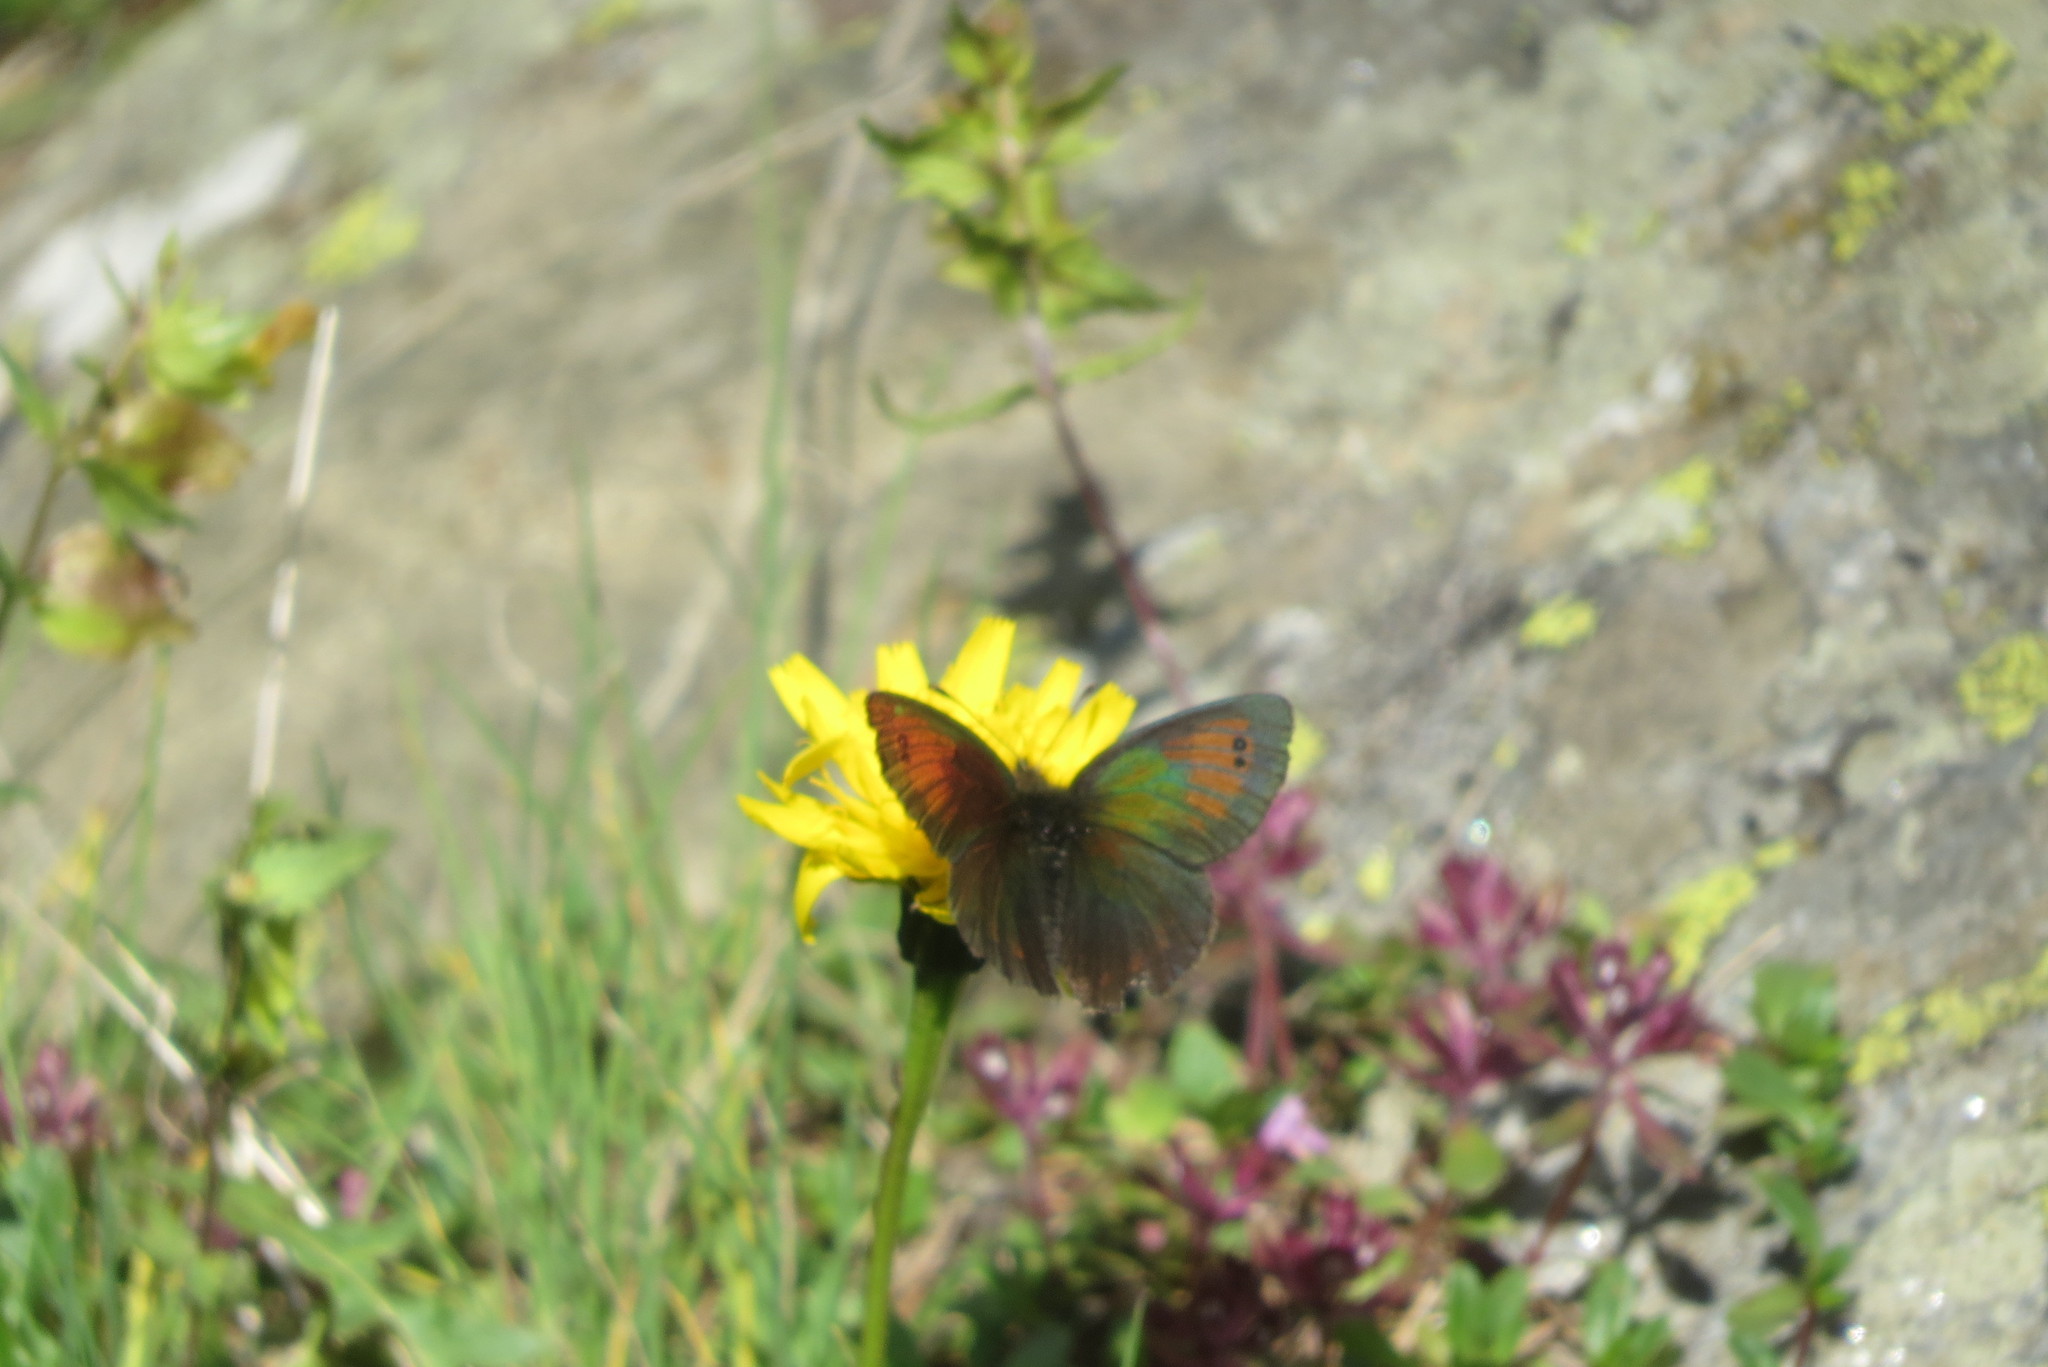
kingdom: Animalia
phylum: Arthropoda
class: Insecta
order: Lepidoptera
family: Nymphalidae
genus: Erebia
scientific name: Erebia tyndarus
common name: Swiss brassy ringlet
